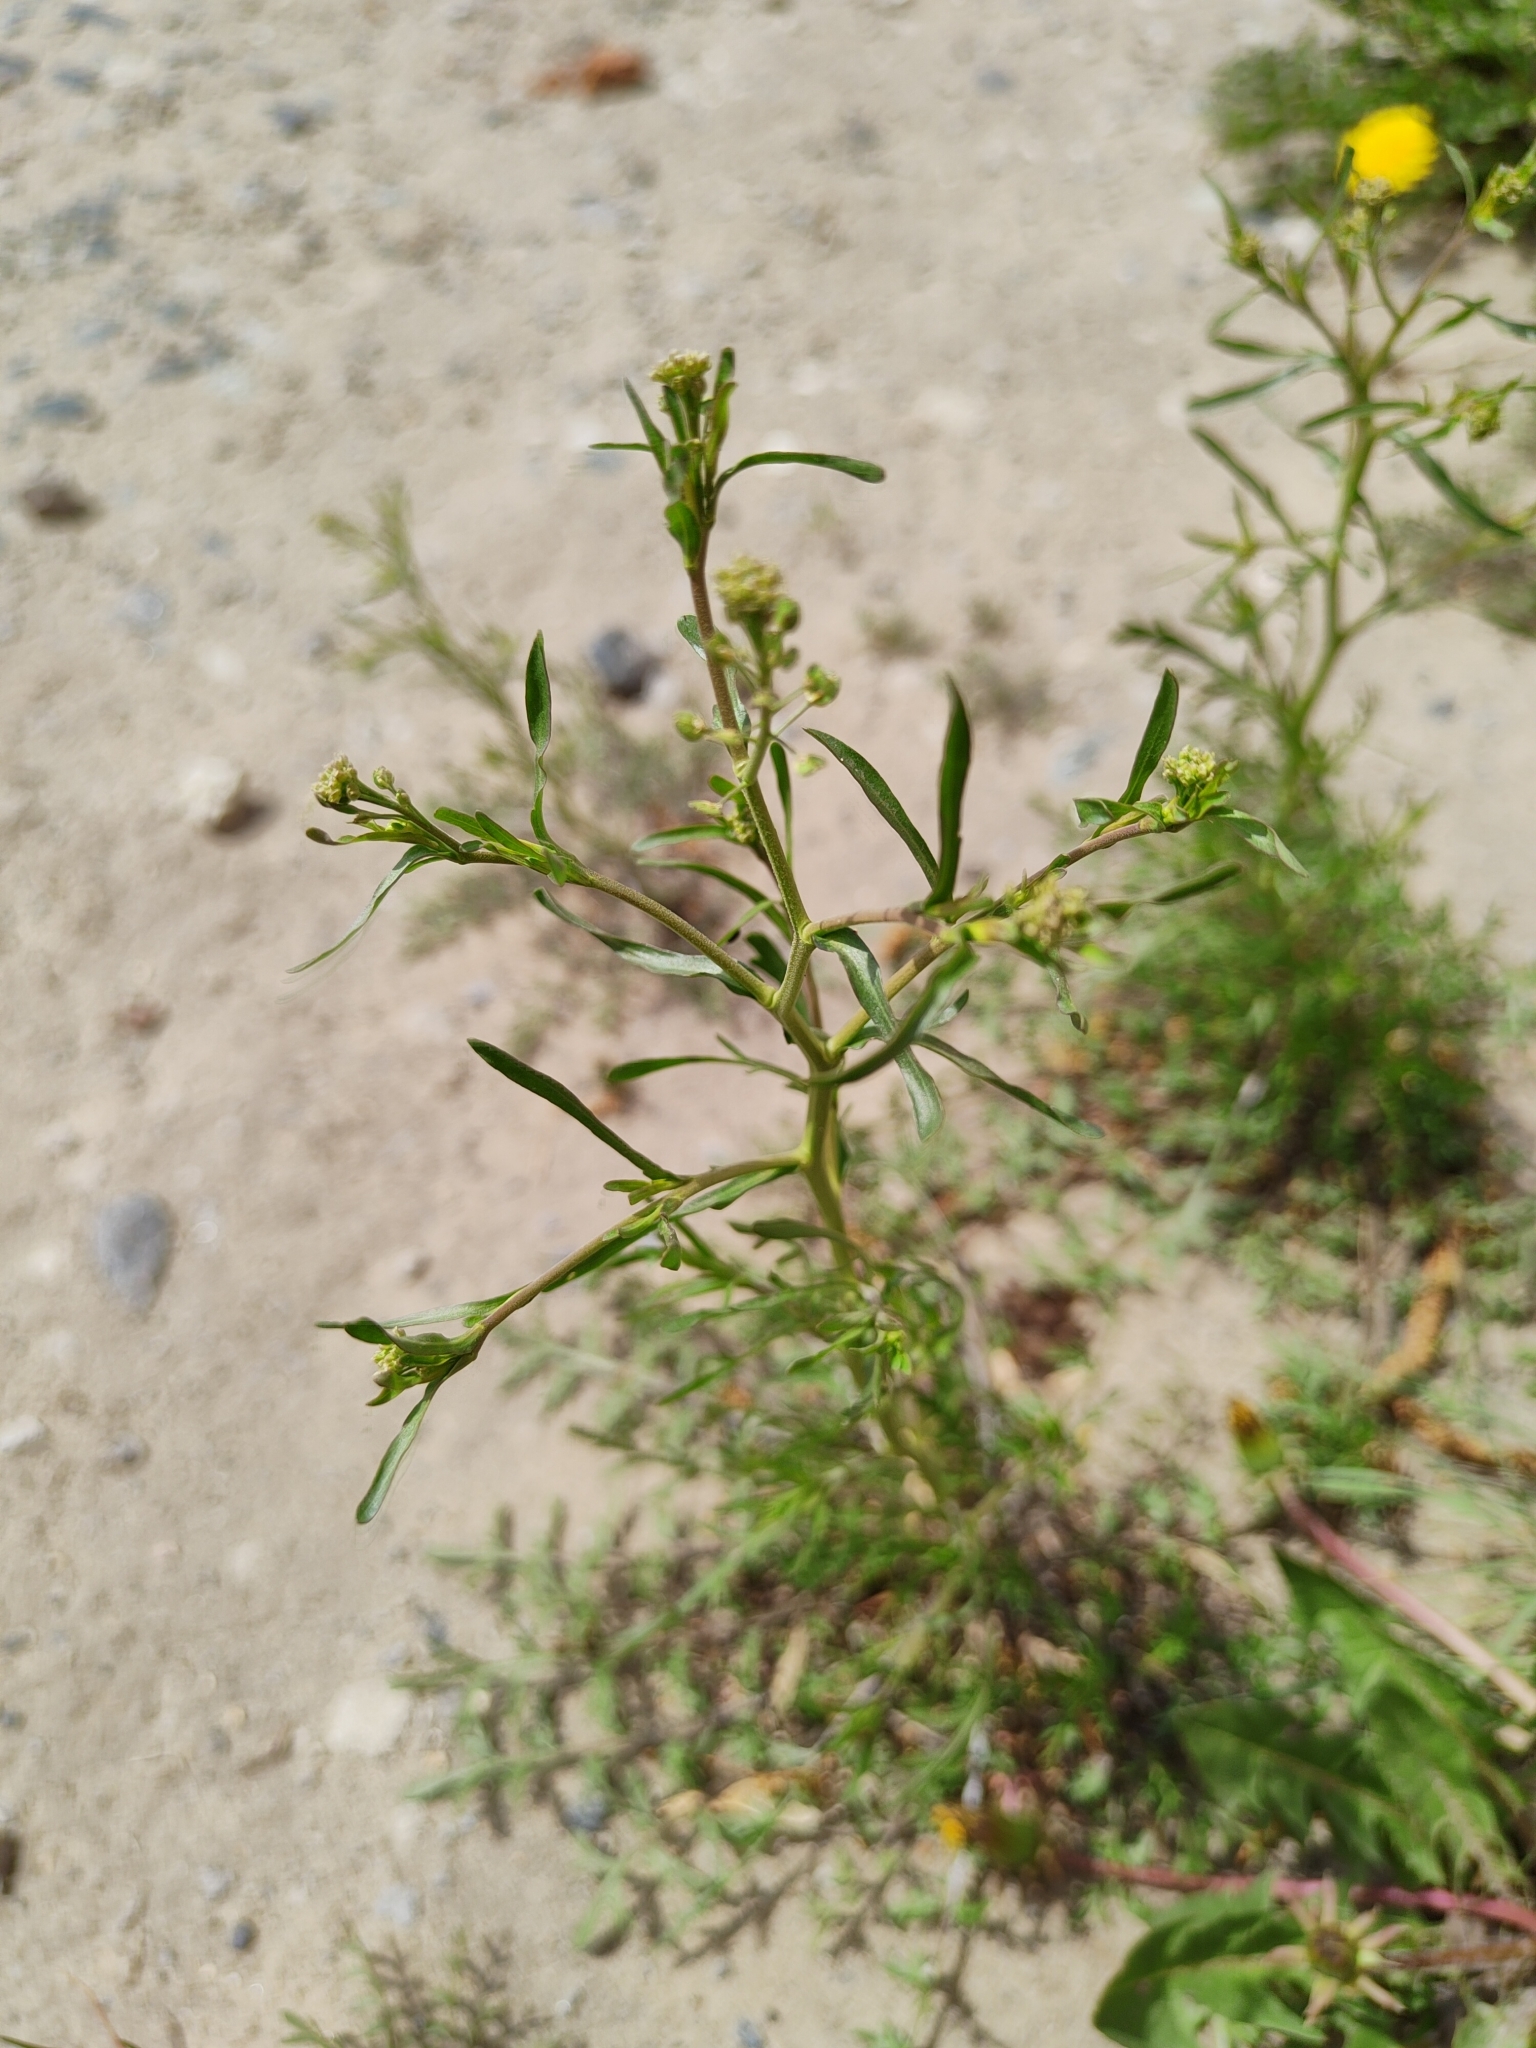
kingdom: Plantae
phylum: Tracheophyta
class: Magnoliopsida
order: Brassicales
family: Brassicaceae
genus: Lepidium
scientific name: Lepidium ruderale
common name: Narrow-leaved pepperwort
